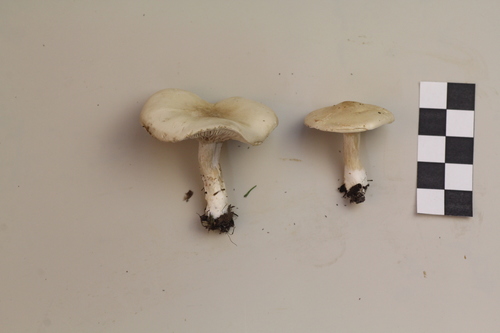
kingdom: Fungi
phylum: Basidiomycota
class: Agaricomycetes
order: Agaricales
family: Entolomataceae
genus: Clitopilus
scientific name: Clitopilus prunulus
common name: The miller
